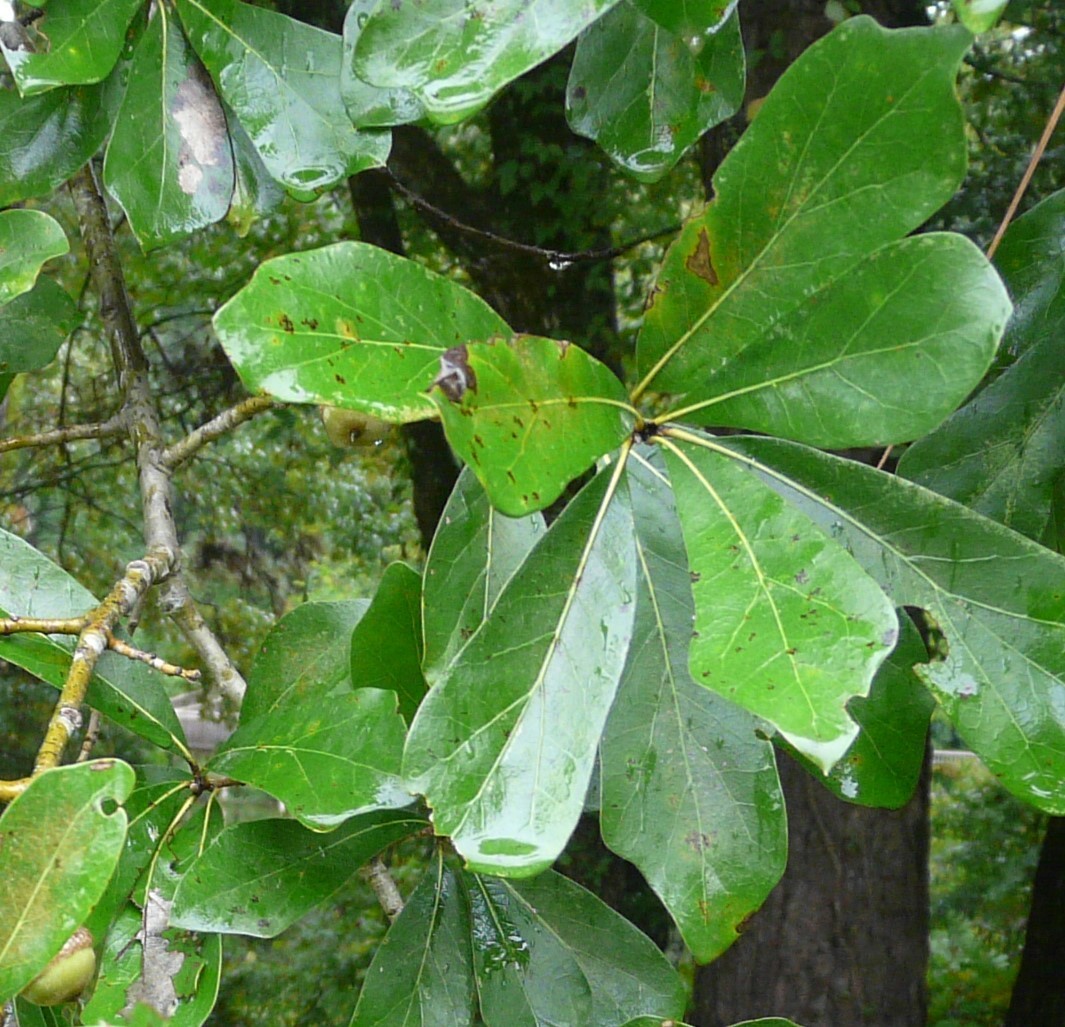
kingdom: Plantae
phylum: Tracheophyta
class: Magnoliopsida
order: Fagales
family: Fagaceae
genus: Quercus
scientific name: Quercus nigra
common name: Water oak
